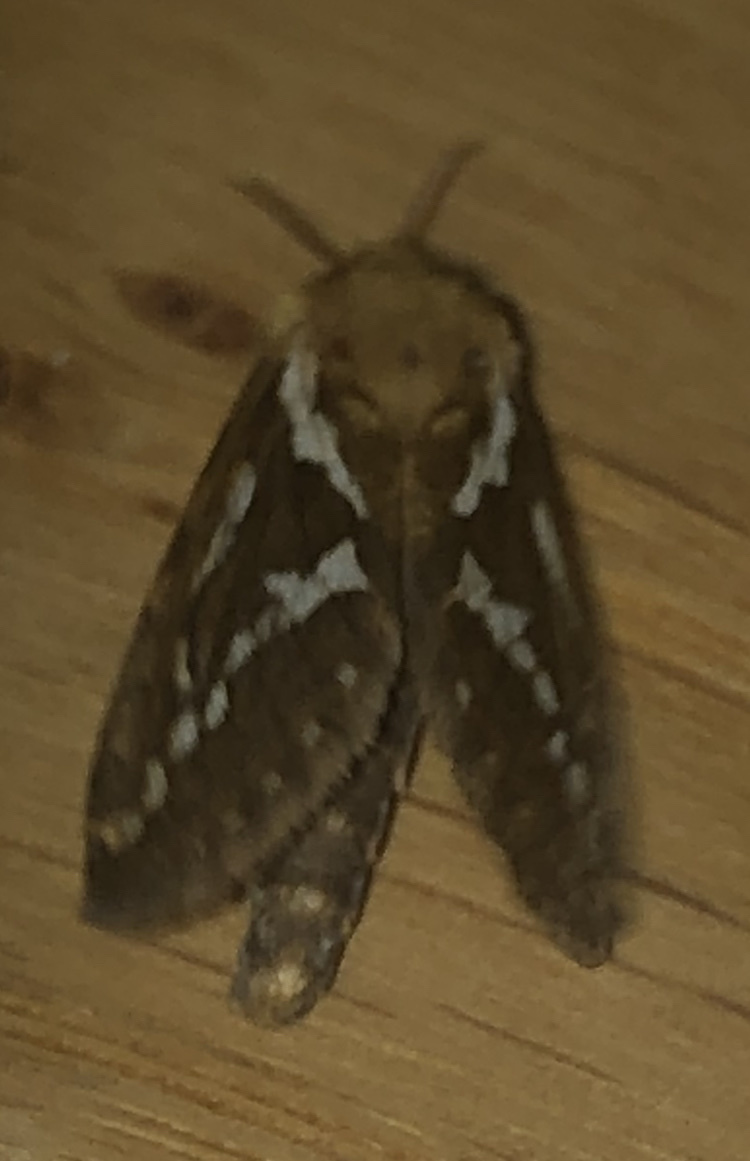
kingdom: Animalia
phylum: Arthropoda
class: Insecta
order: Lepidoptera
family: Hepialidae
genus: Korscheltellus
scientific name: Korscheltellus lupulina
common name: Common swift
